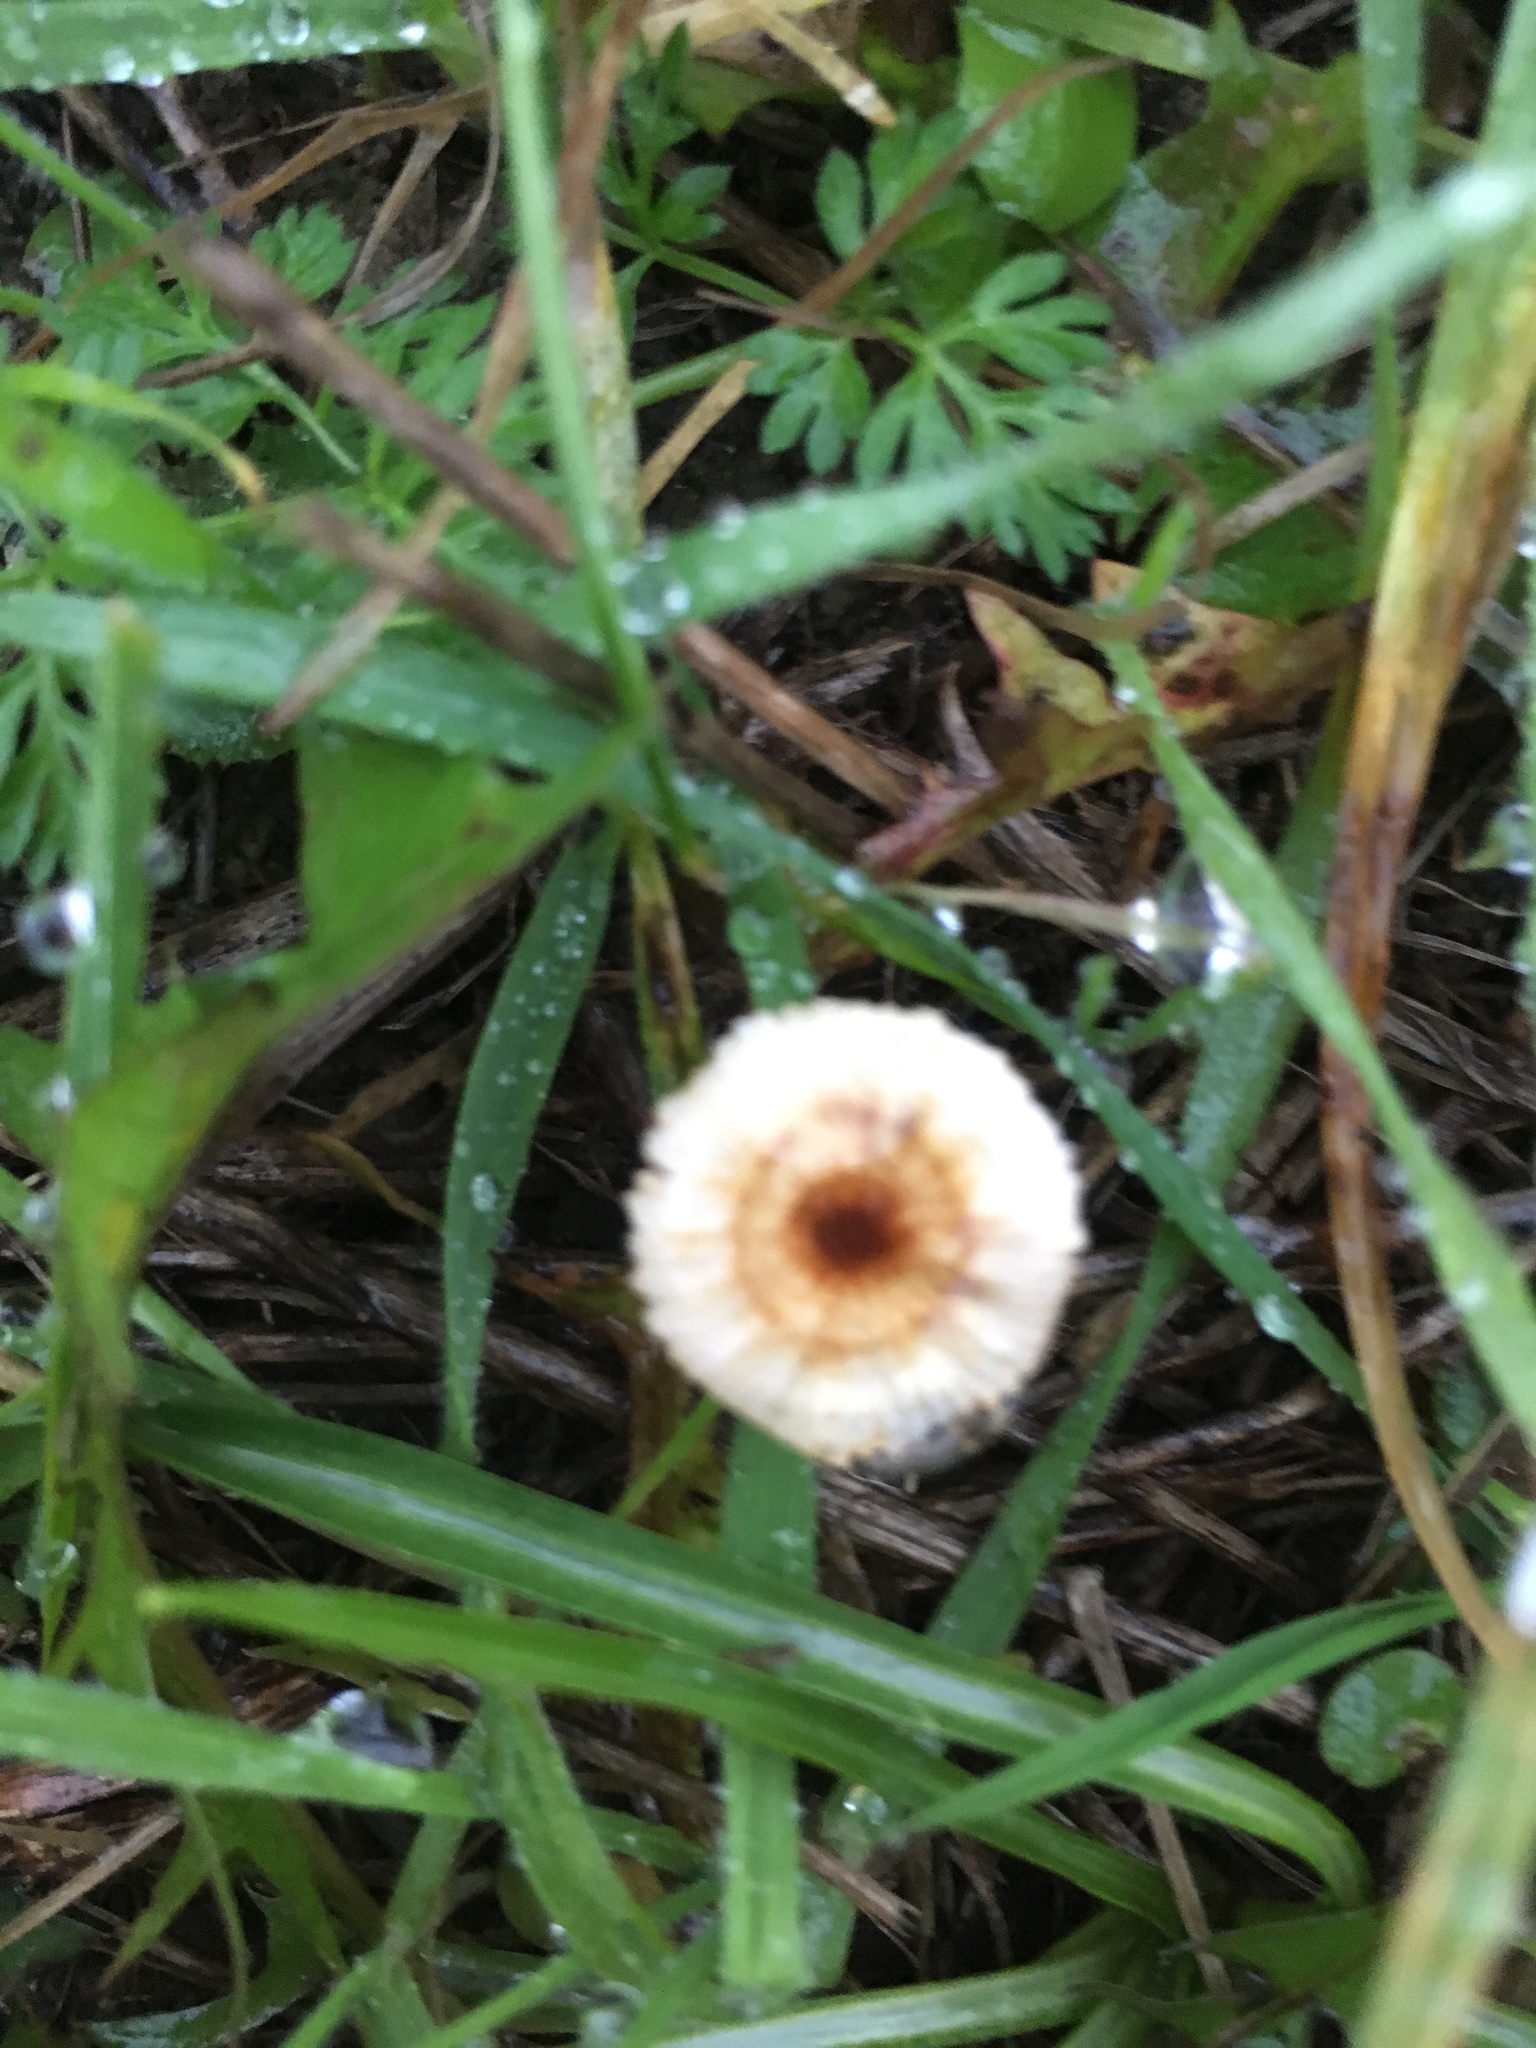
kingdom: Fungi
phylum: Basidiomycota
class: Agaricomycetes
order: Agaricales
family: Marasmiaceae
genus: Crinipellis
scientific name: Crinipellis scabella
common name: Hairy parachute
